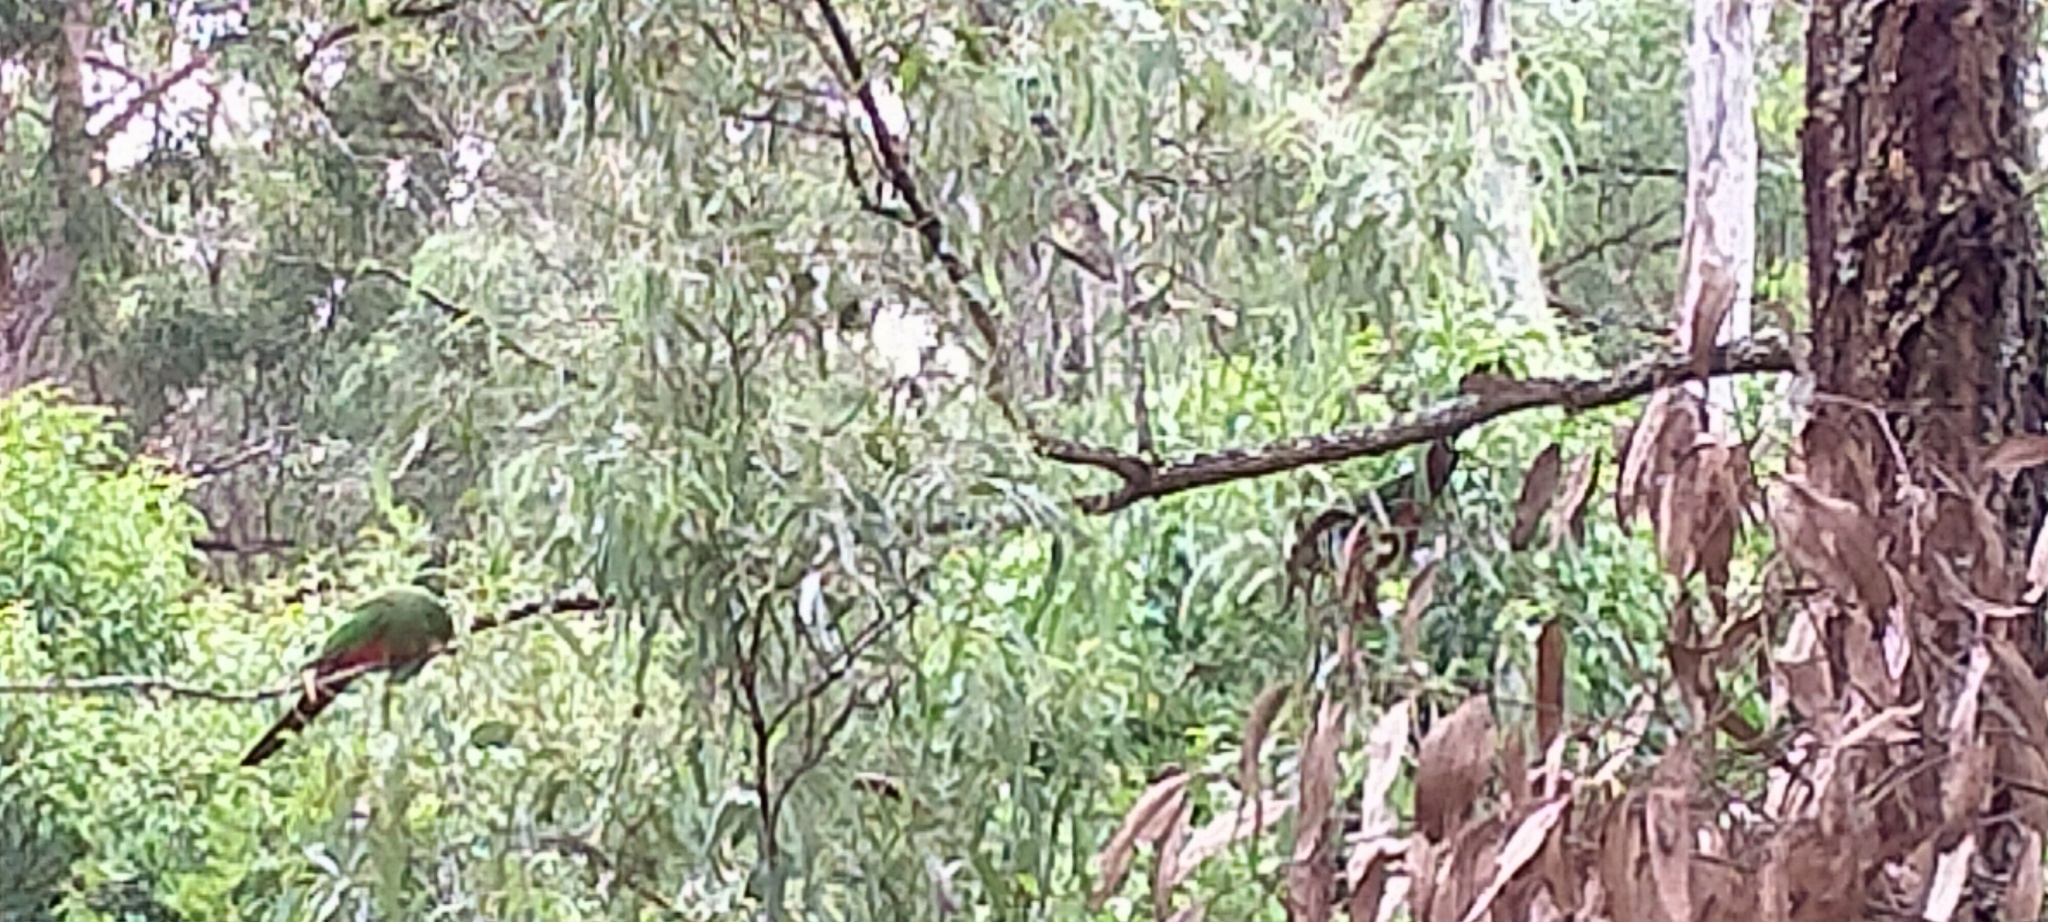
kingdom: Animalia
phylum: Chordata
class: Aves
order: Psittaciformes
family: Psittacidae
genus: Alisterus
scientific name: Alisterus scapularis
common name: Australian king parrot
